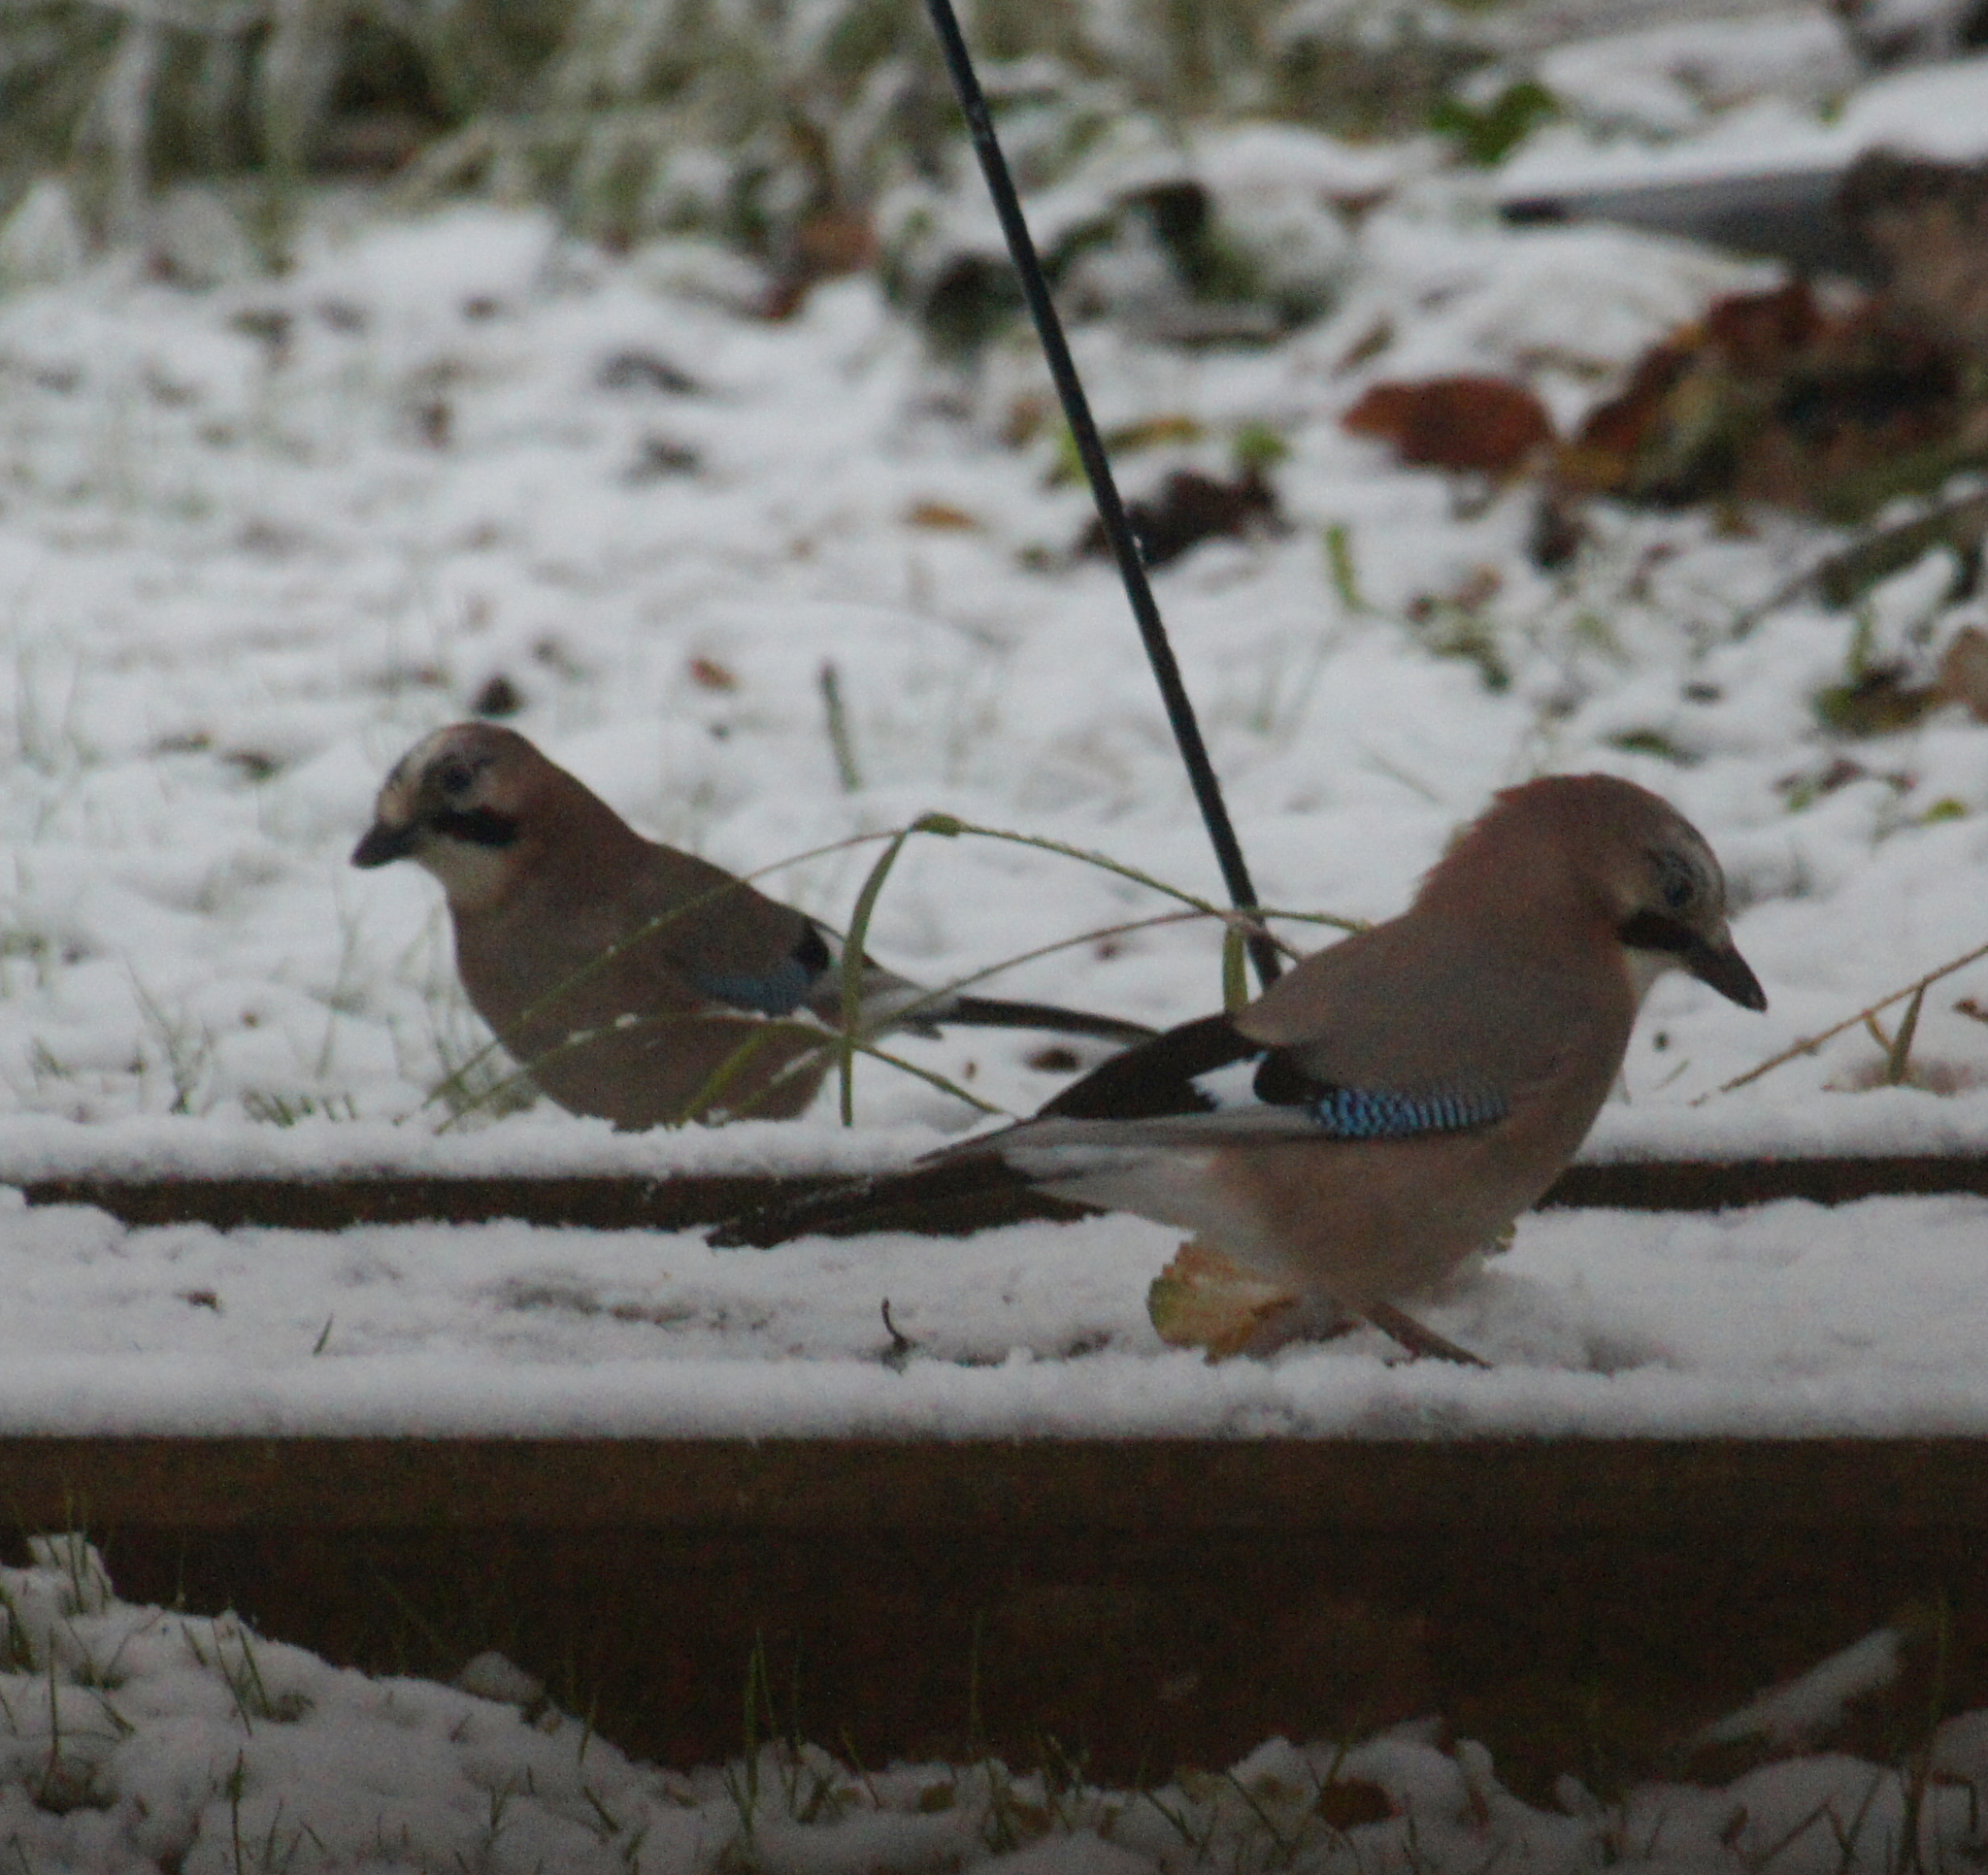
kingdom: Animalia
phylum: Chordata
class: Aves
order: Passeriformes
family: Corvidae
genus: Garrulus
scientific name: Garrulus glandarius
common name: Eurasian jay
